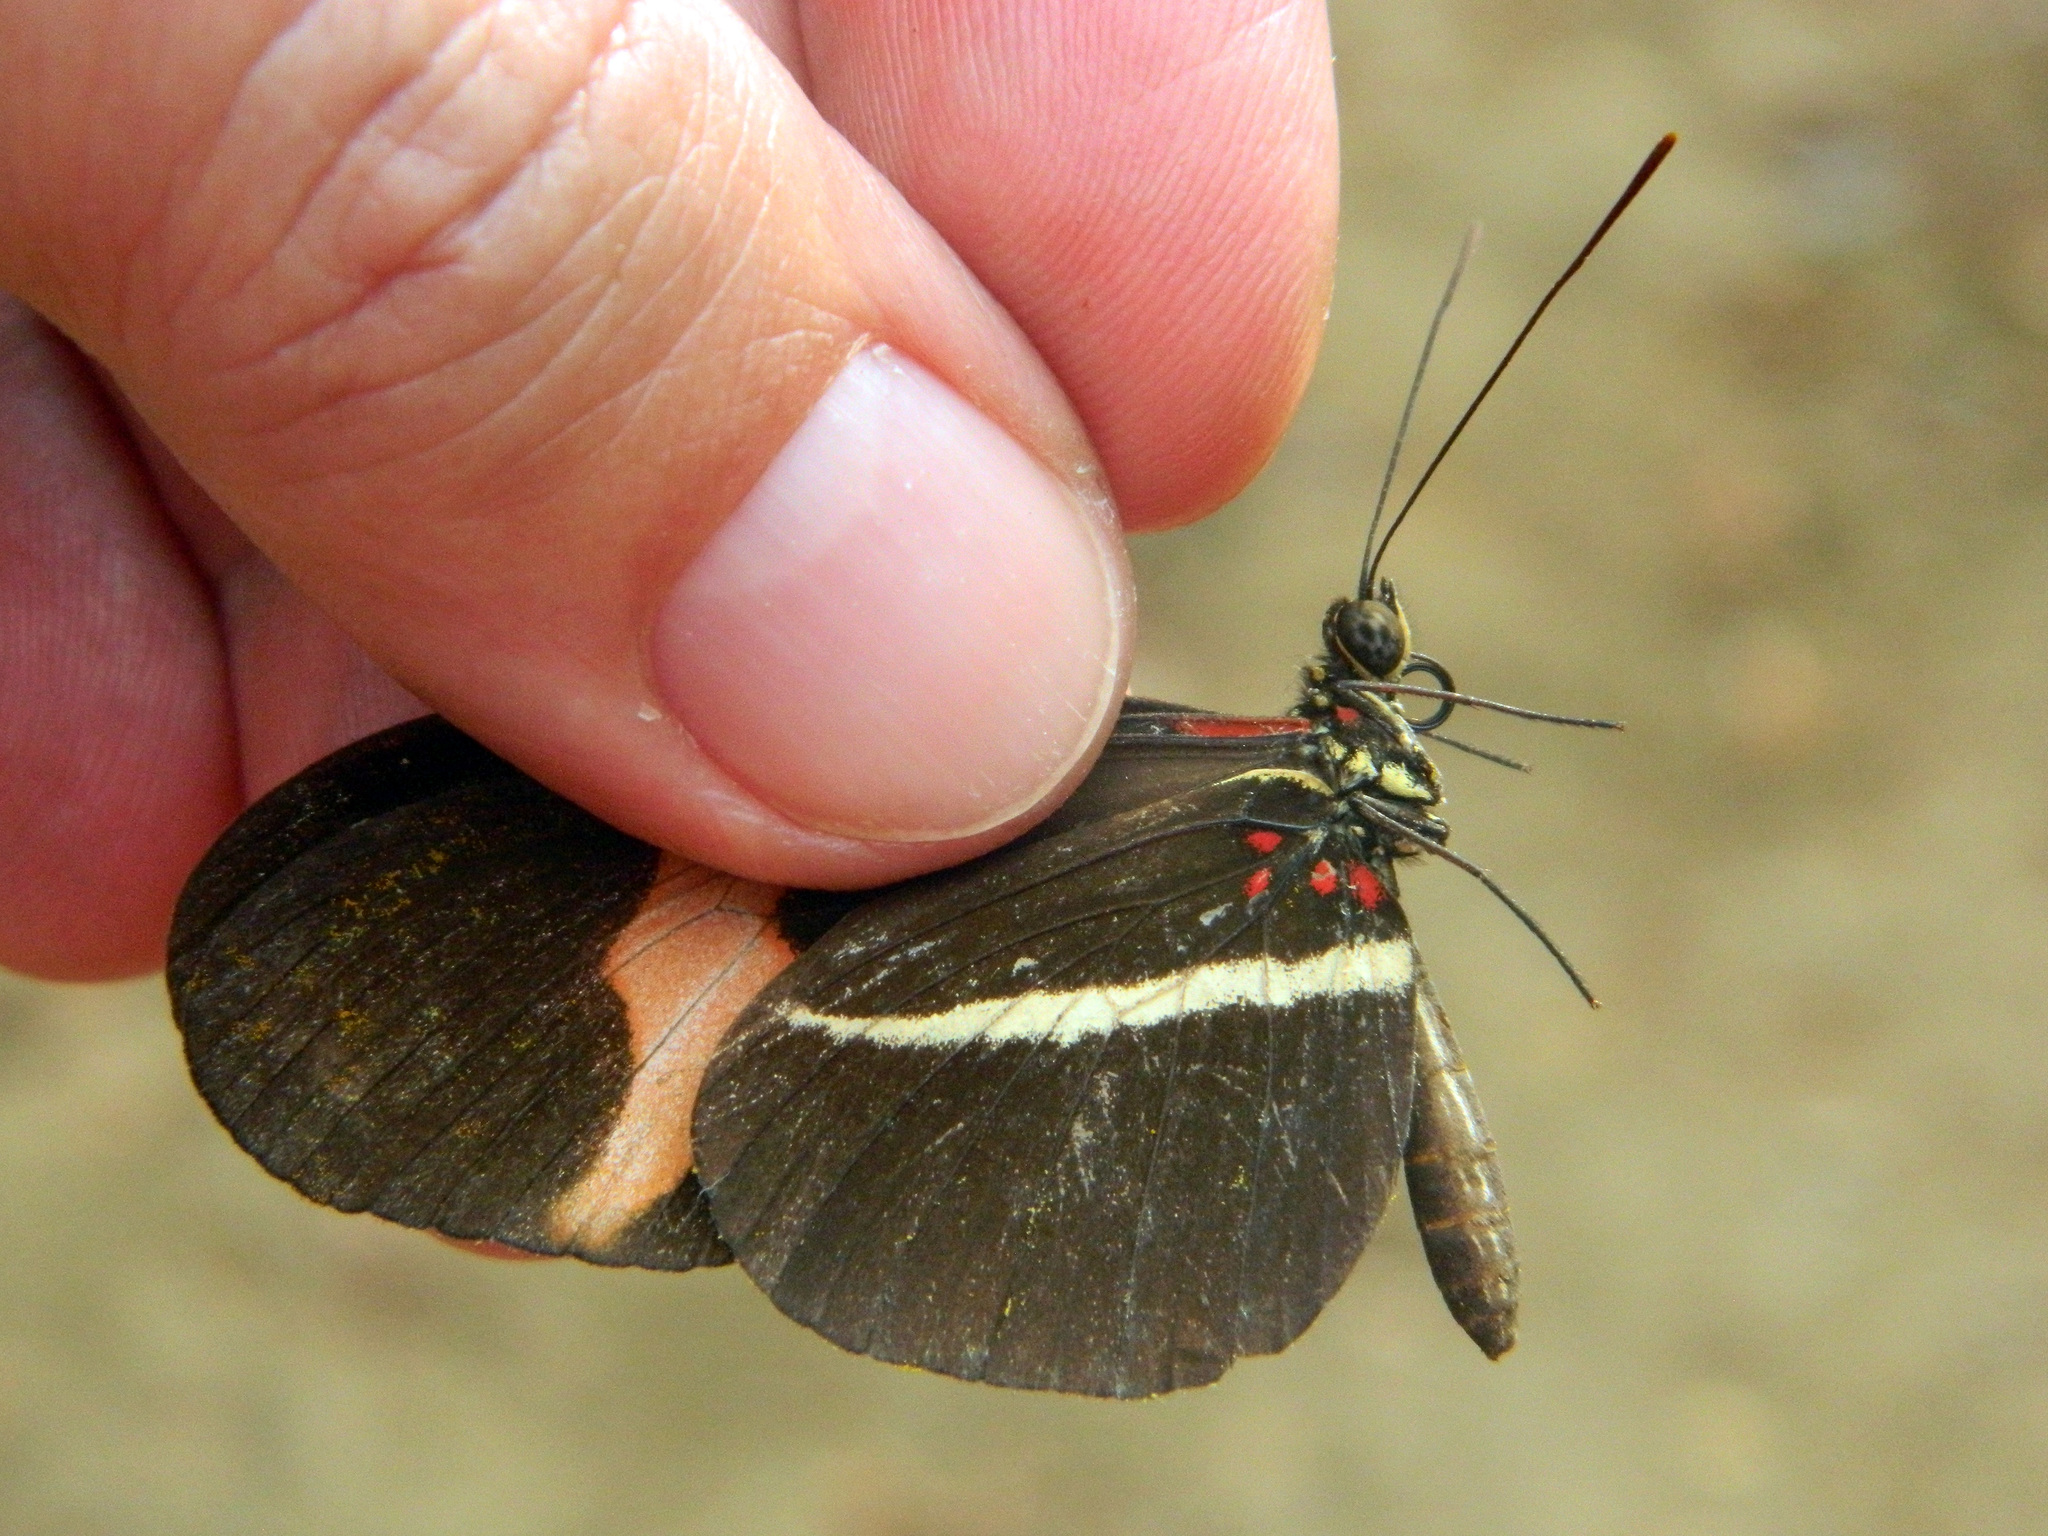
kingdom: Animalia
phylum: Arthropoda
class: Insecta
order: Lepidoptera
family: Nymphalidae
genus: Heliconius
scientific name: Heliconius erato
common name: Common patch longwing
